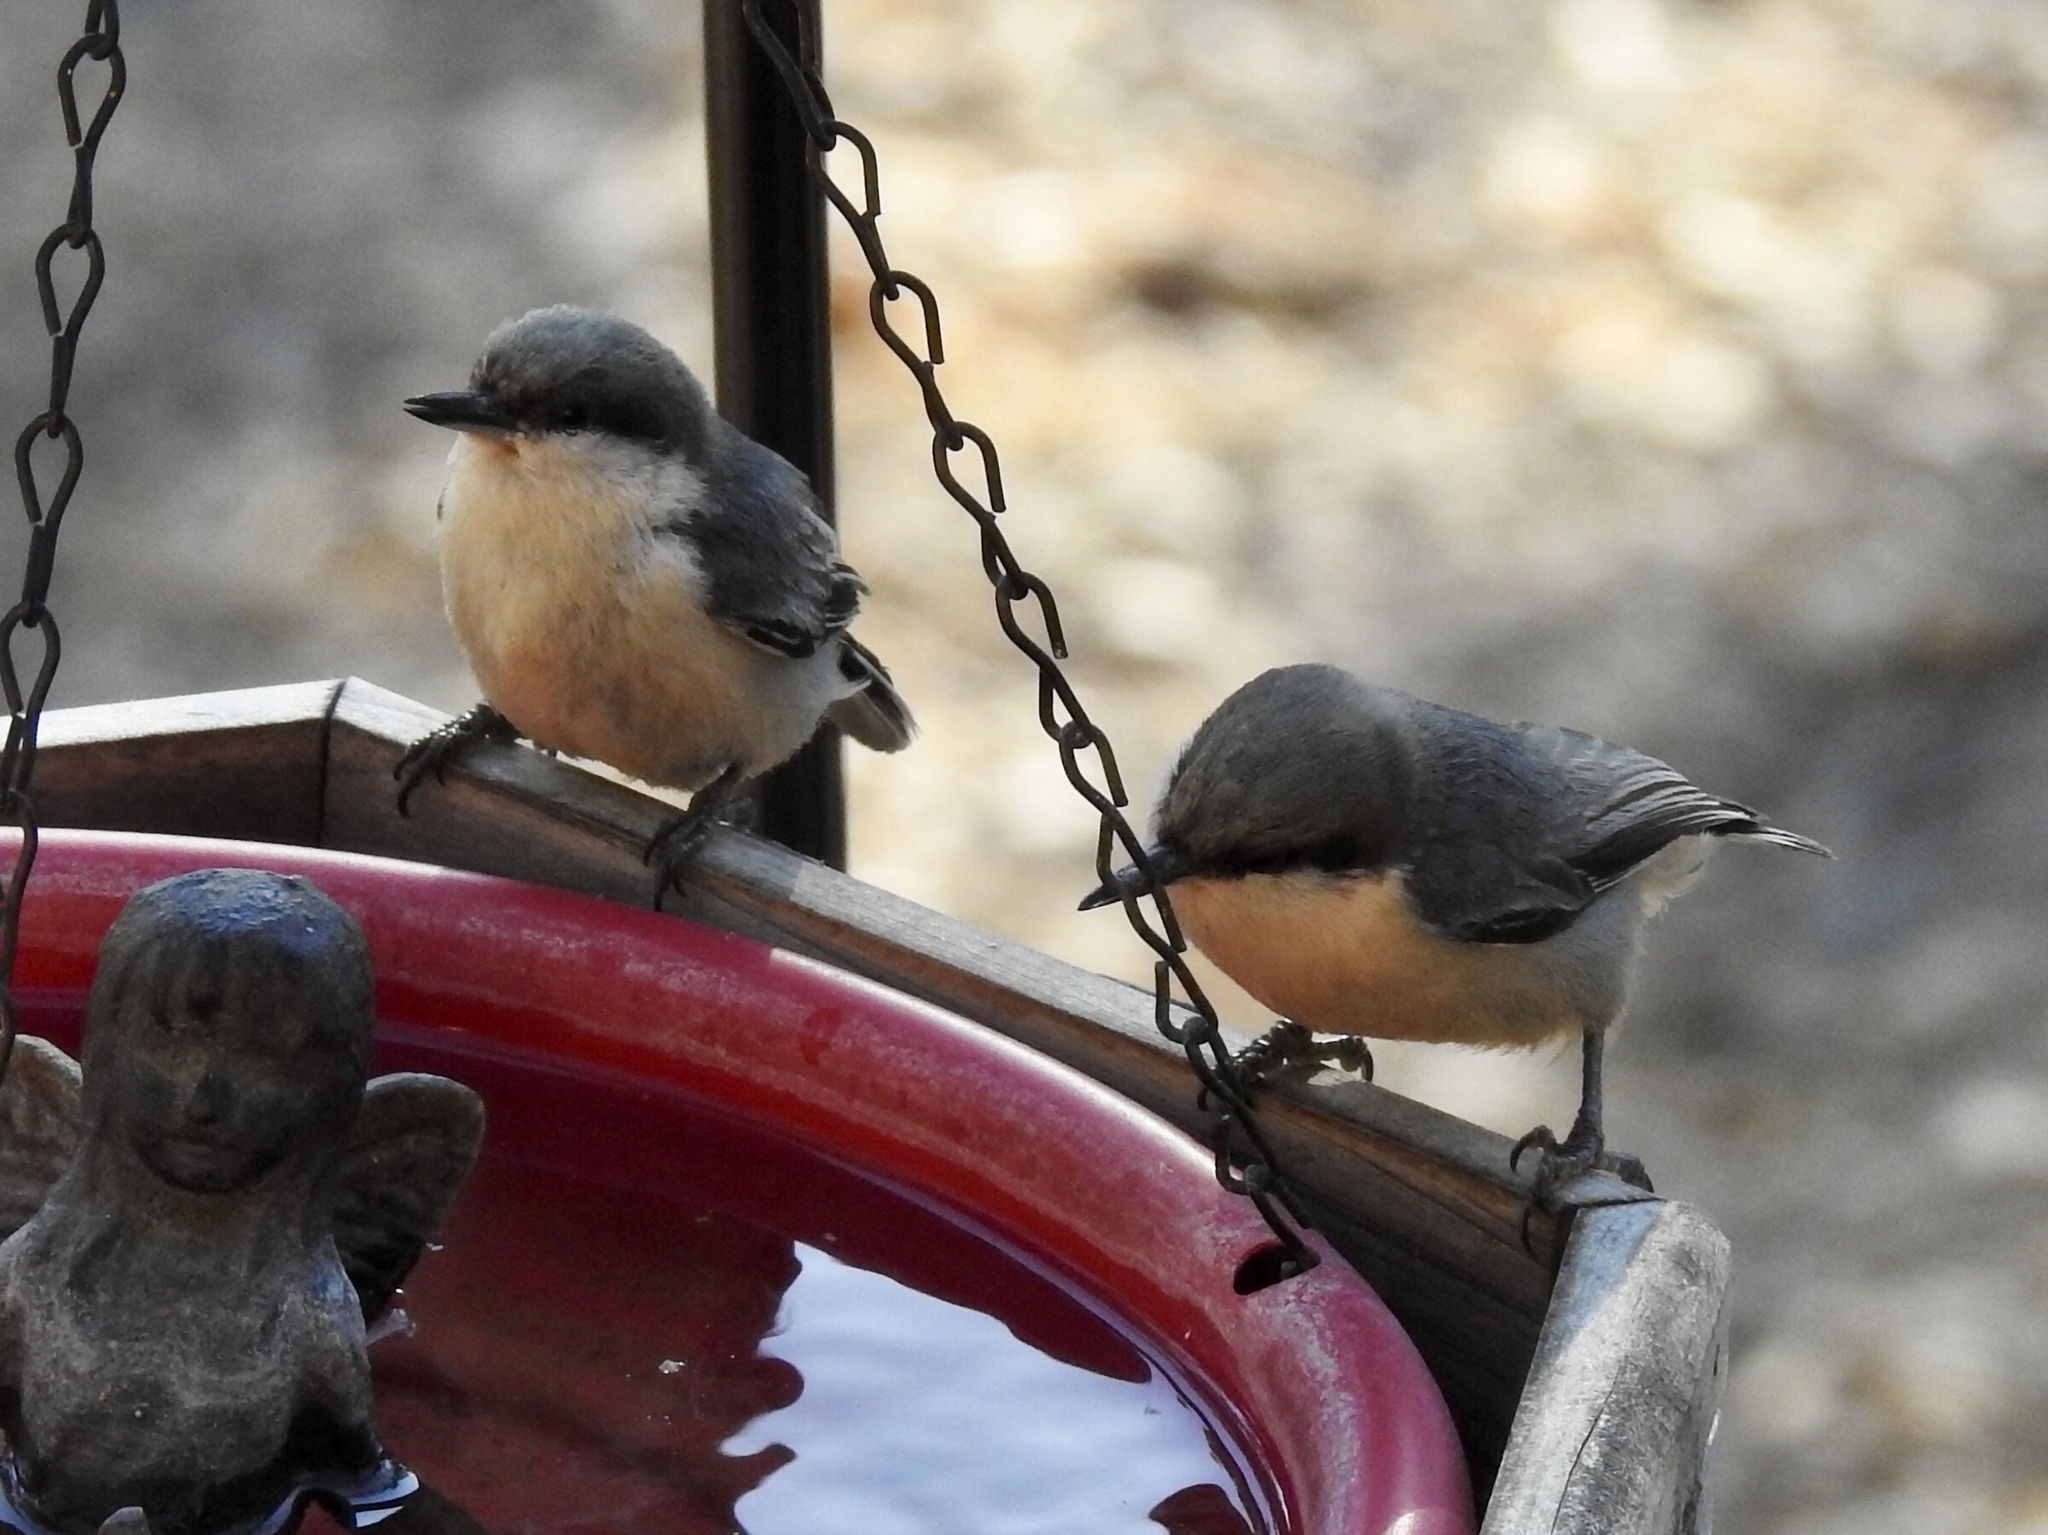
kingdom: Animalia
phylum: Chordata
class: Aves
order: Passeriformes
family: Sittidae
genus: Sitta
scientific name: Sitta pygmaea
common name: Pygmy nuthatch
